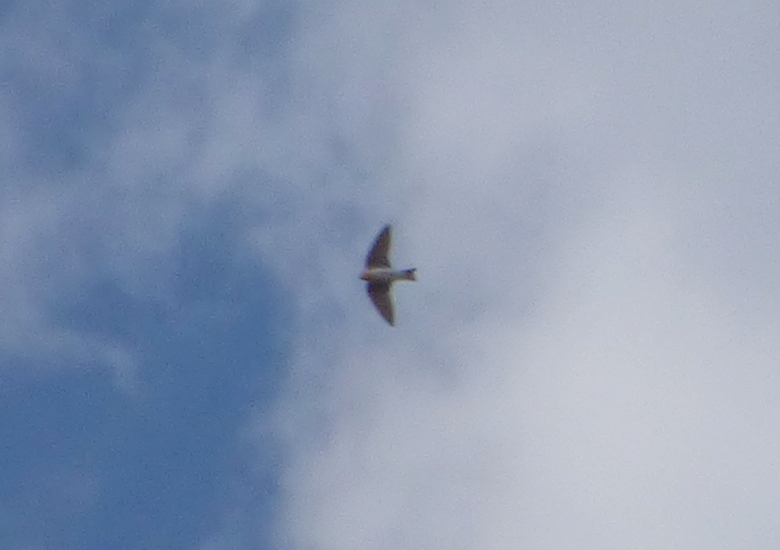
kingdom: Animalia
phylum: Chordata
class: Aves
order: Passeriformes
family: Hirundinidae
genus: Alopochelidon
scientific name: Alopochelidon fucata
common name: Tawny-headed swallow
